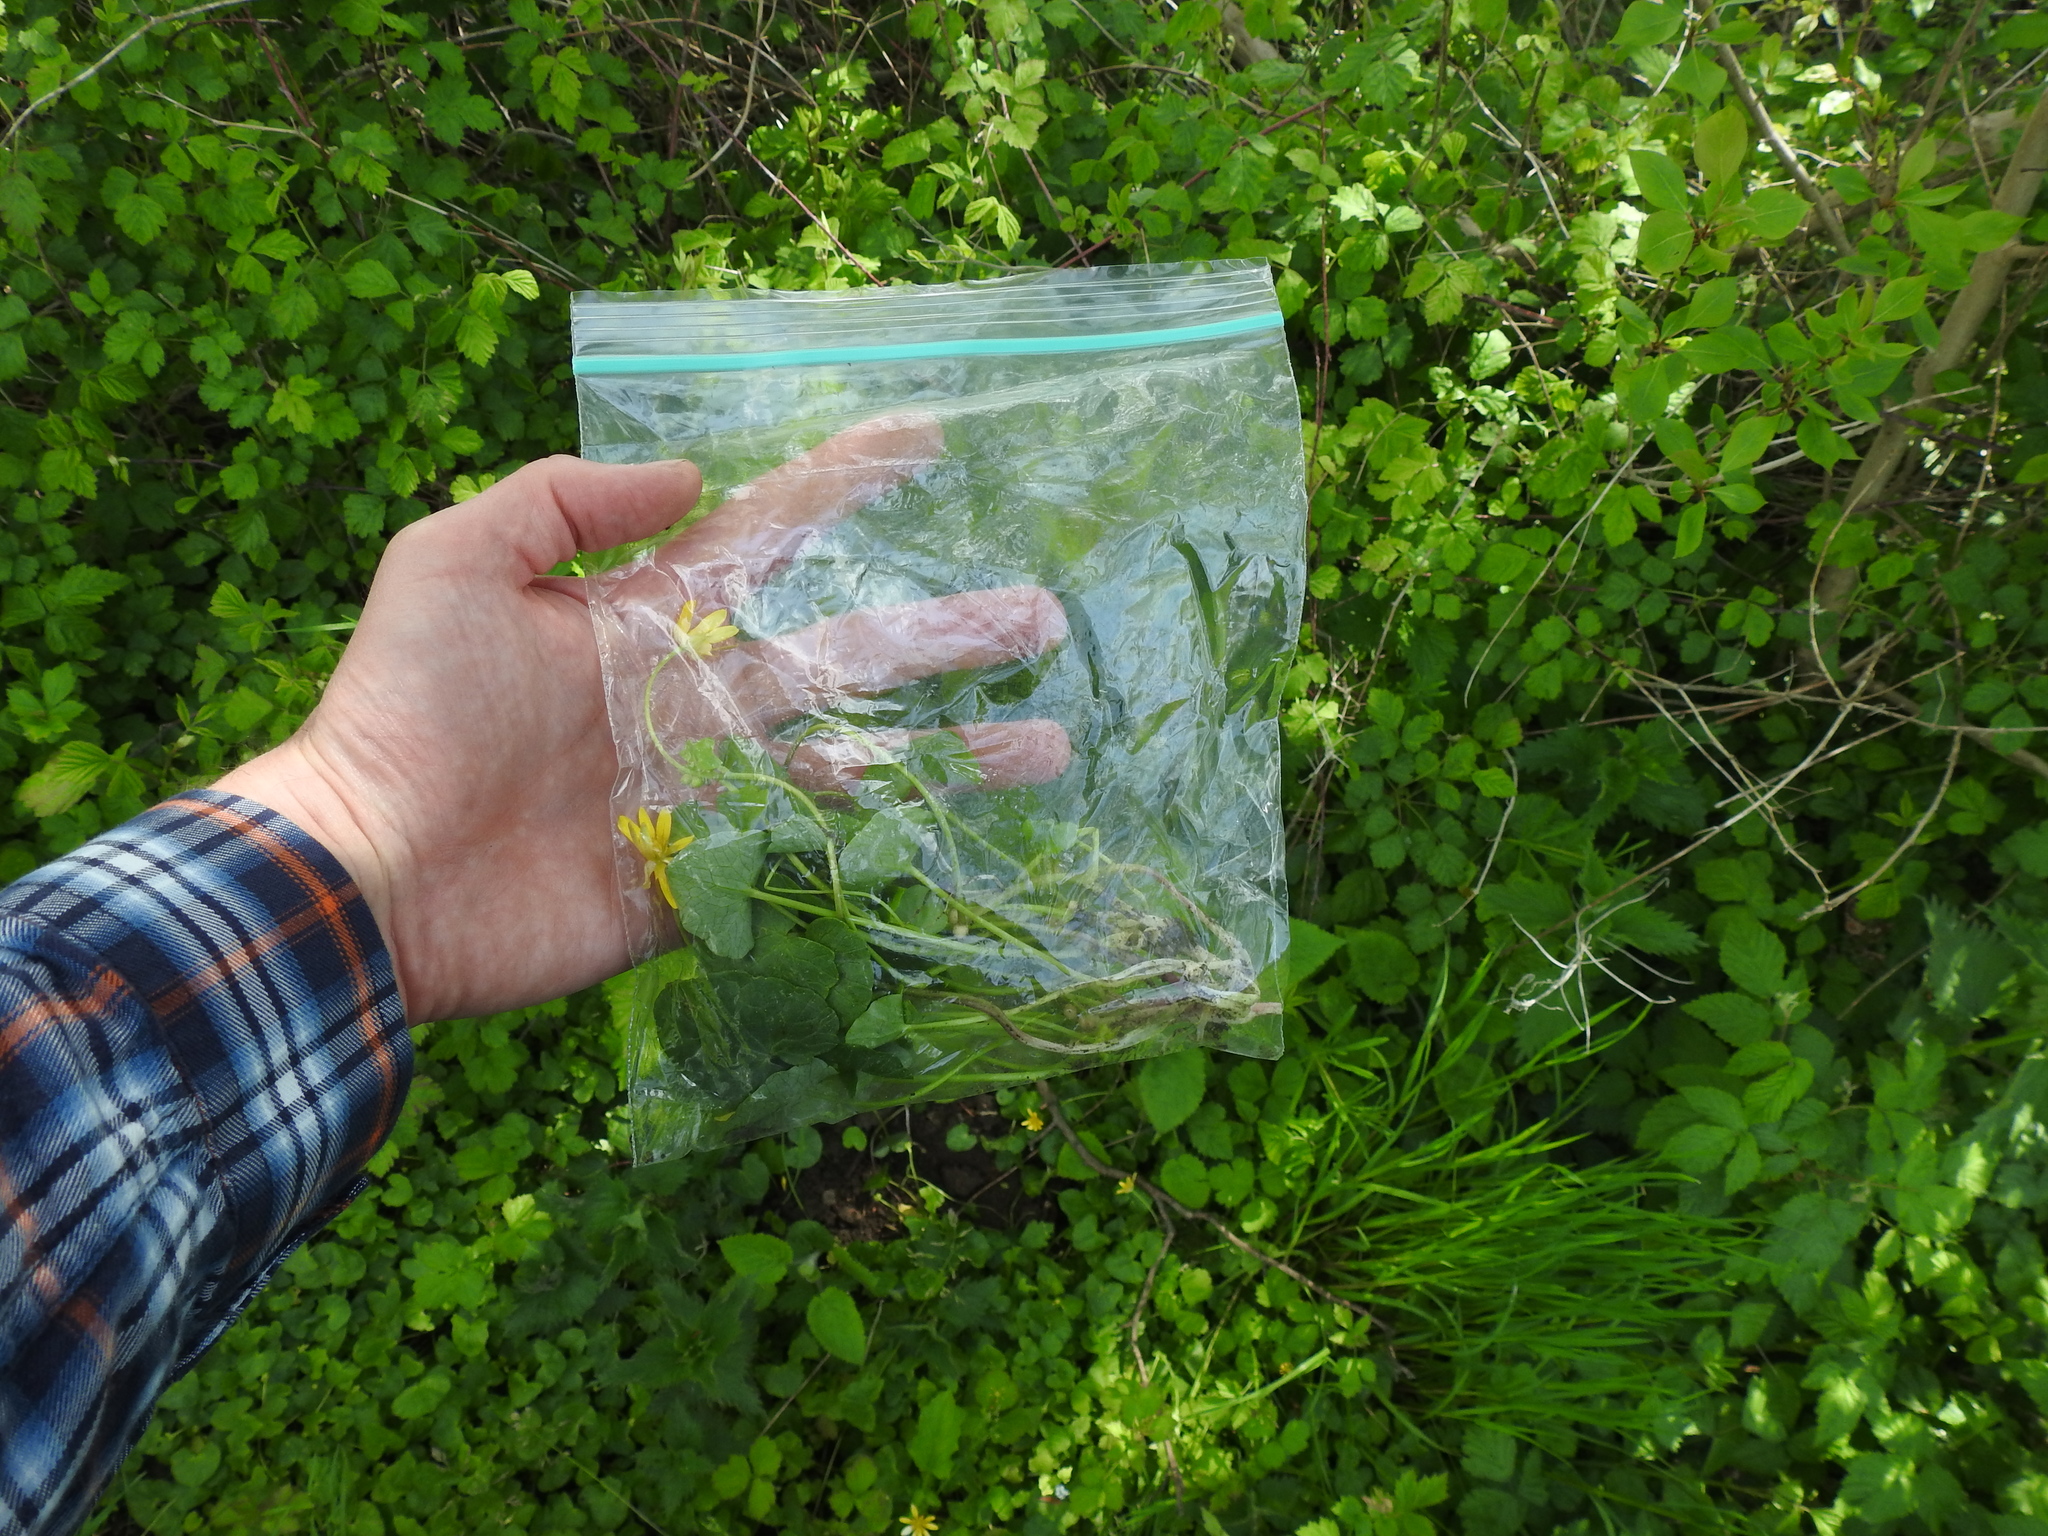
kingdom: Plantae
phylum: Tracheophyta
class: Magnoliopsida
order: Ranunculales
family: Ranunculaceae
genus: Ficaria
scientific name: Ficaria verna
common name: Lesser celandine
